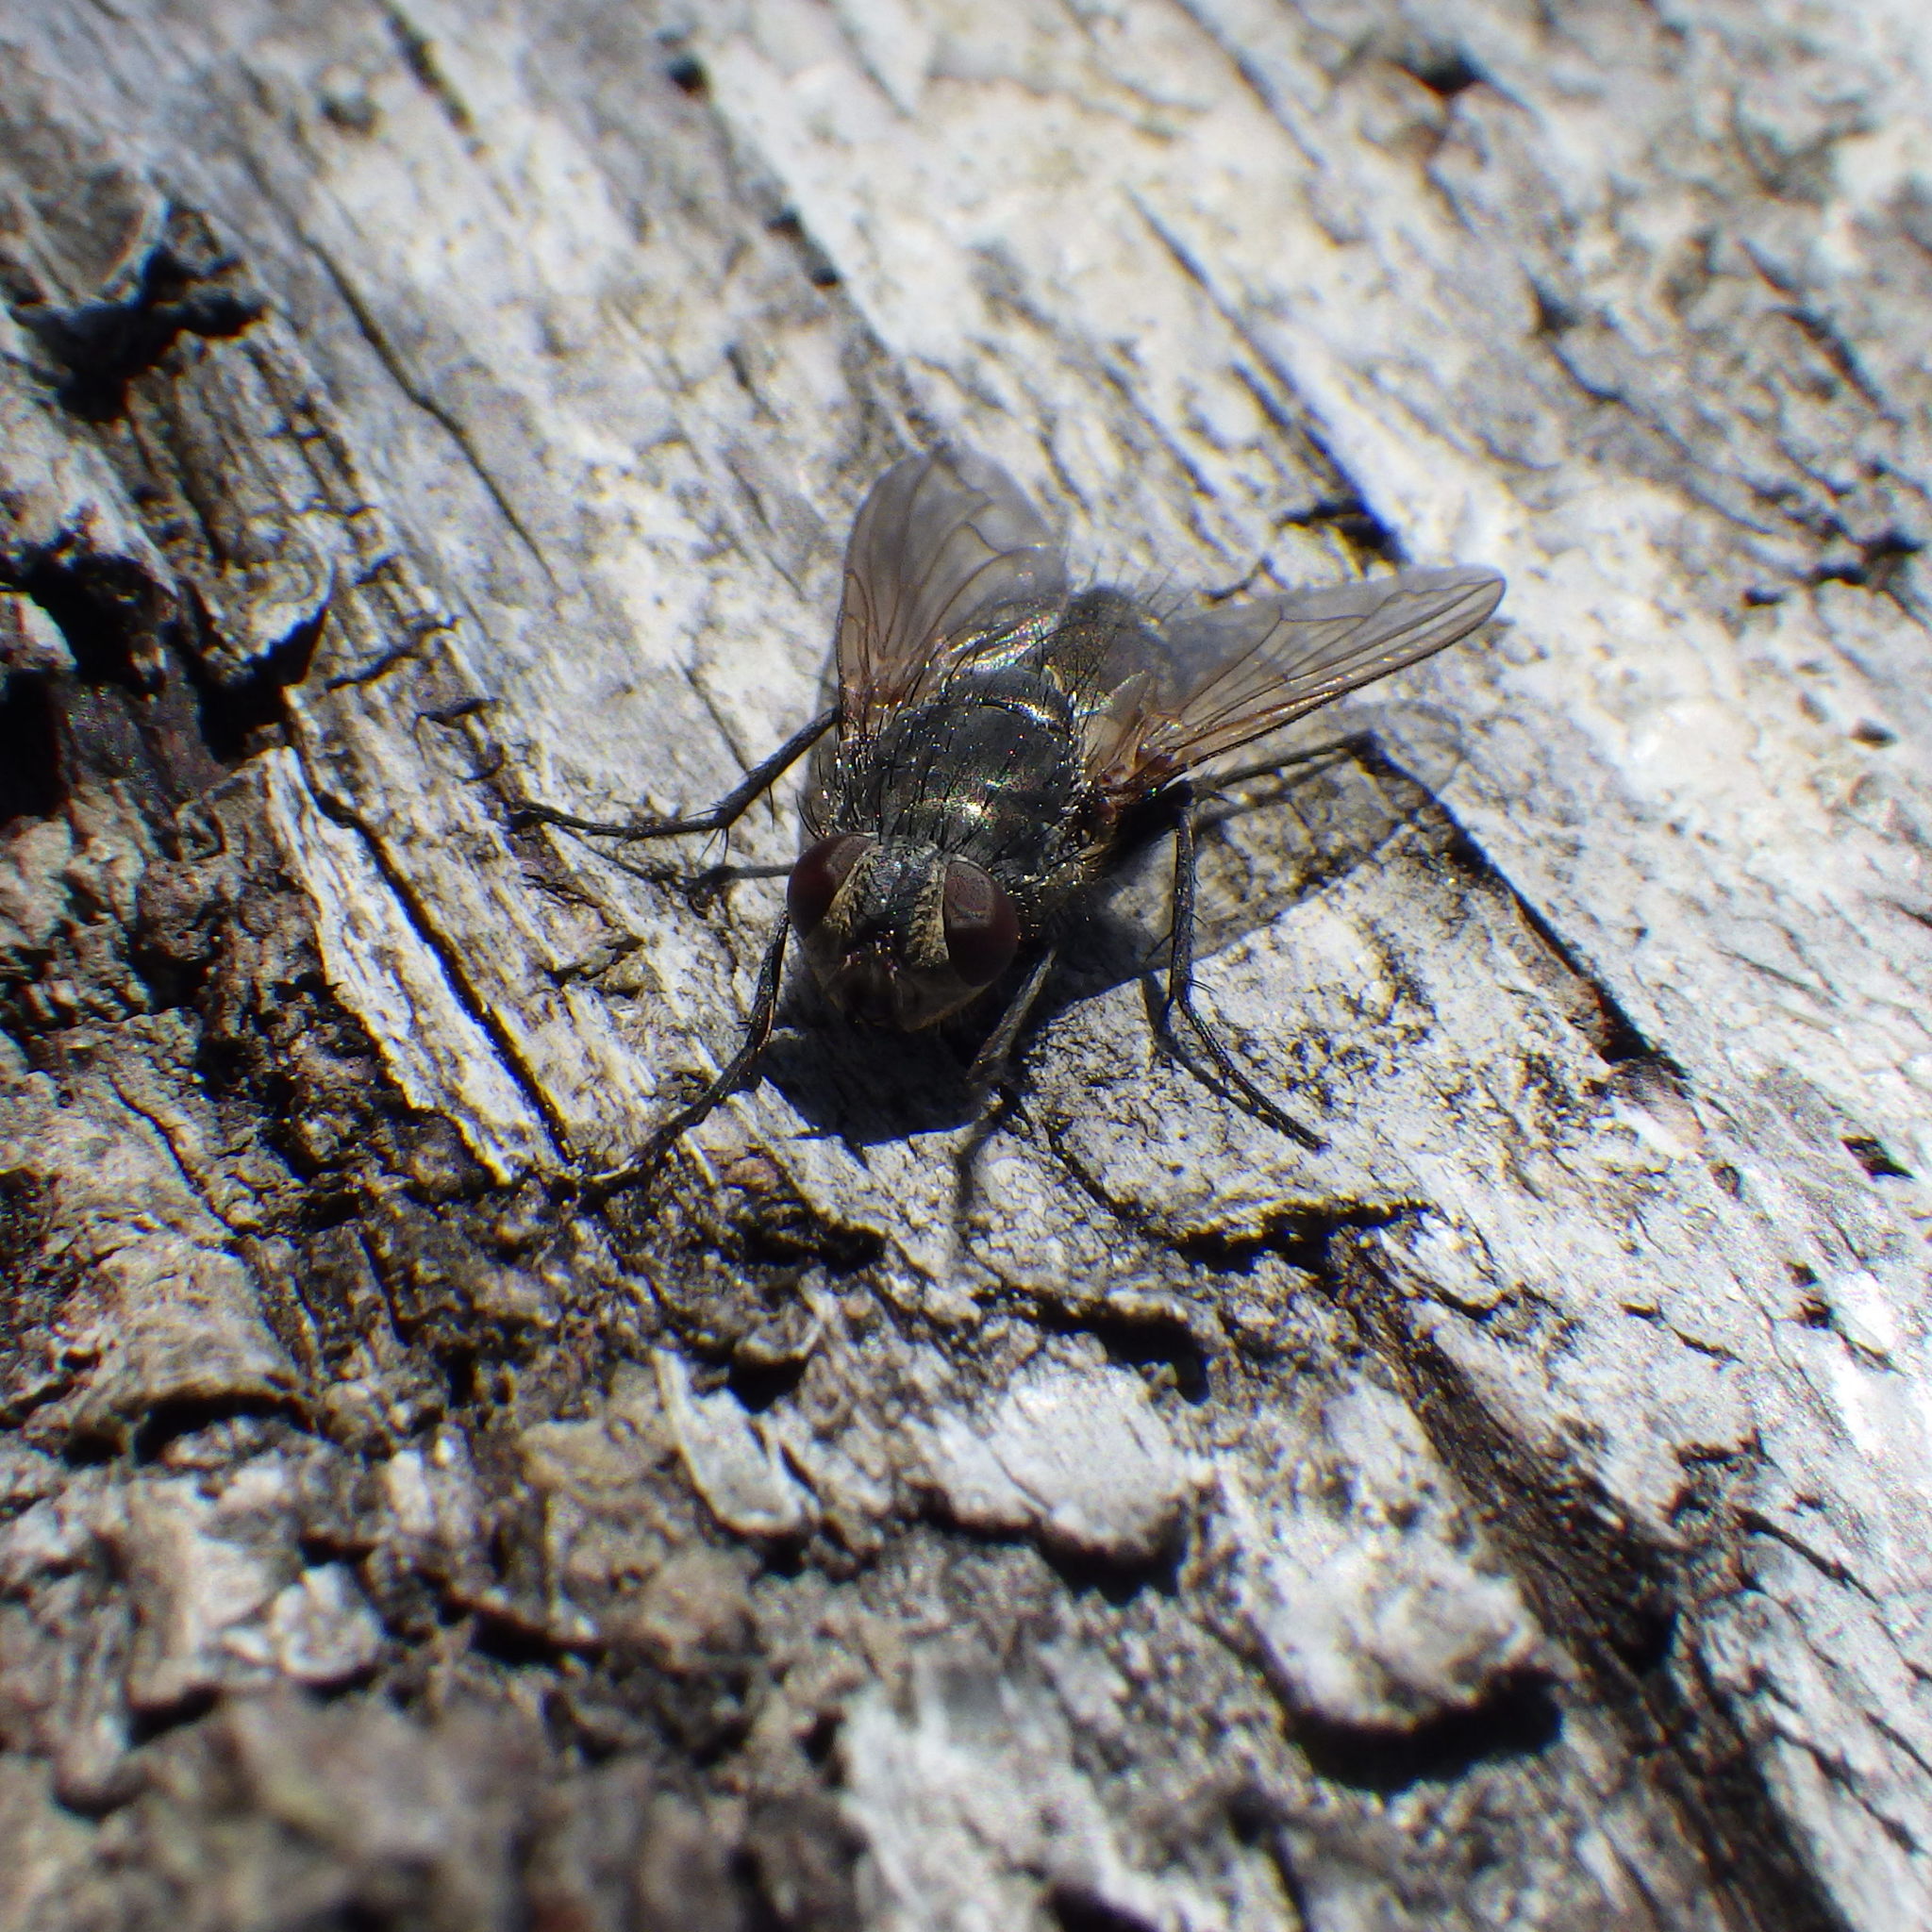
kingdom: Animalia
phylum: Arthropoda
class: Insecta
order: Diptera
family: Polleniidae
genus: Pollenia
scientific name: Pollenia
